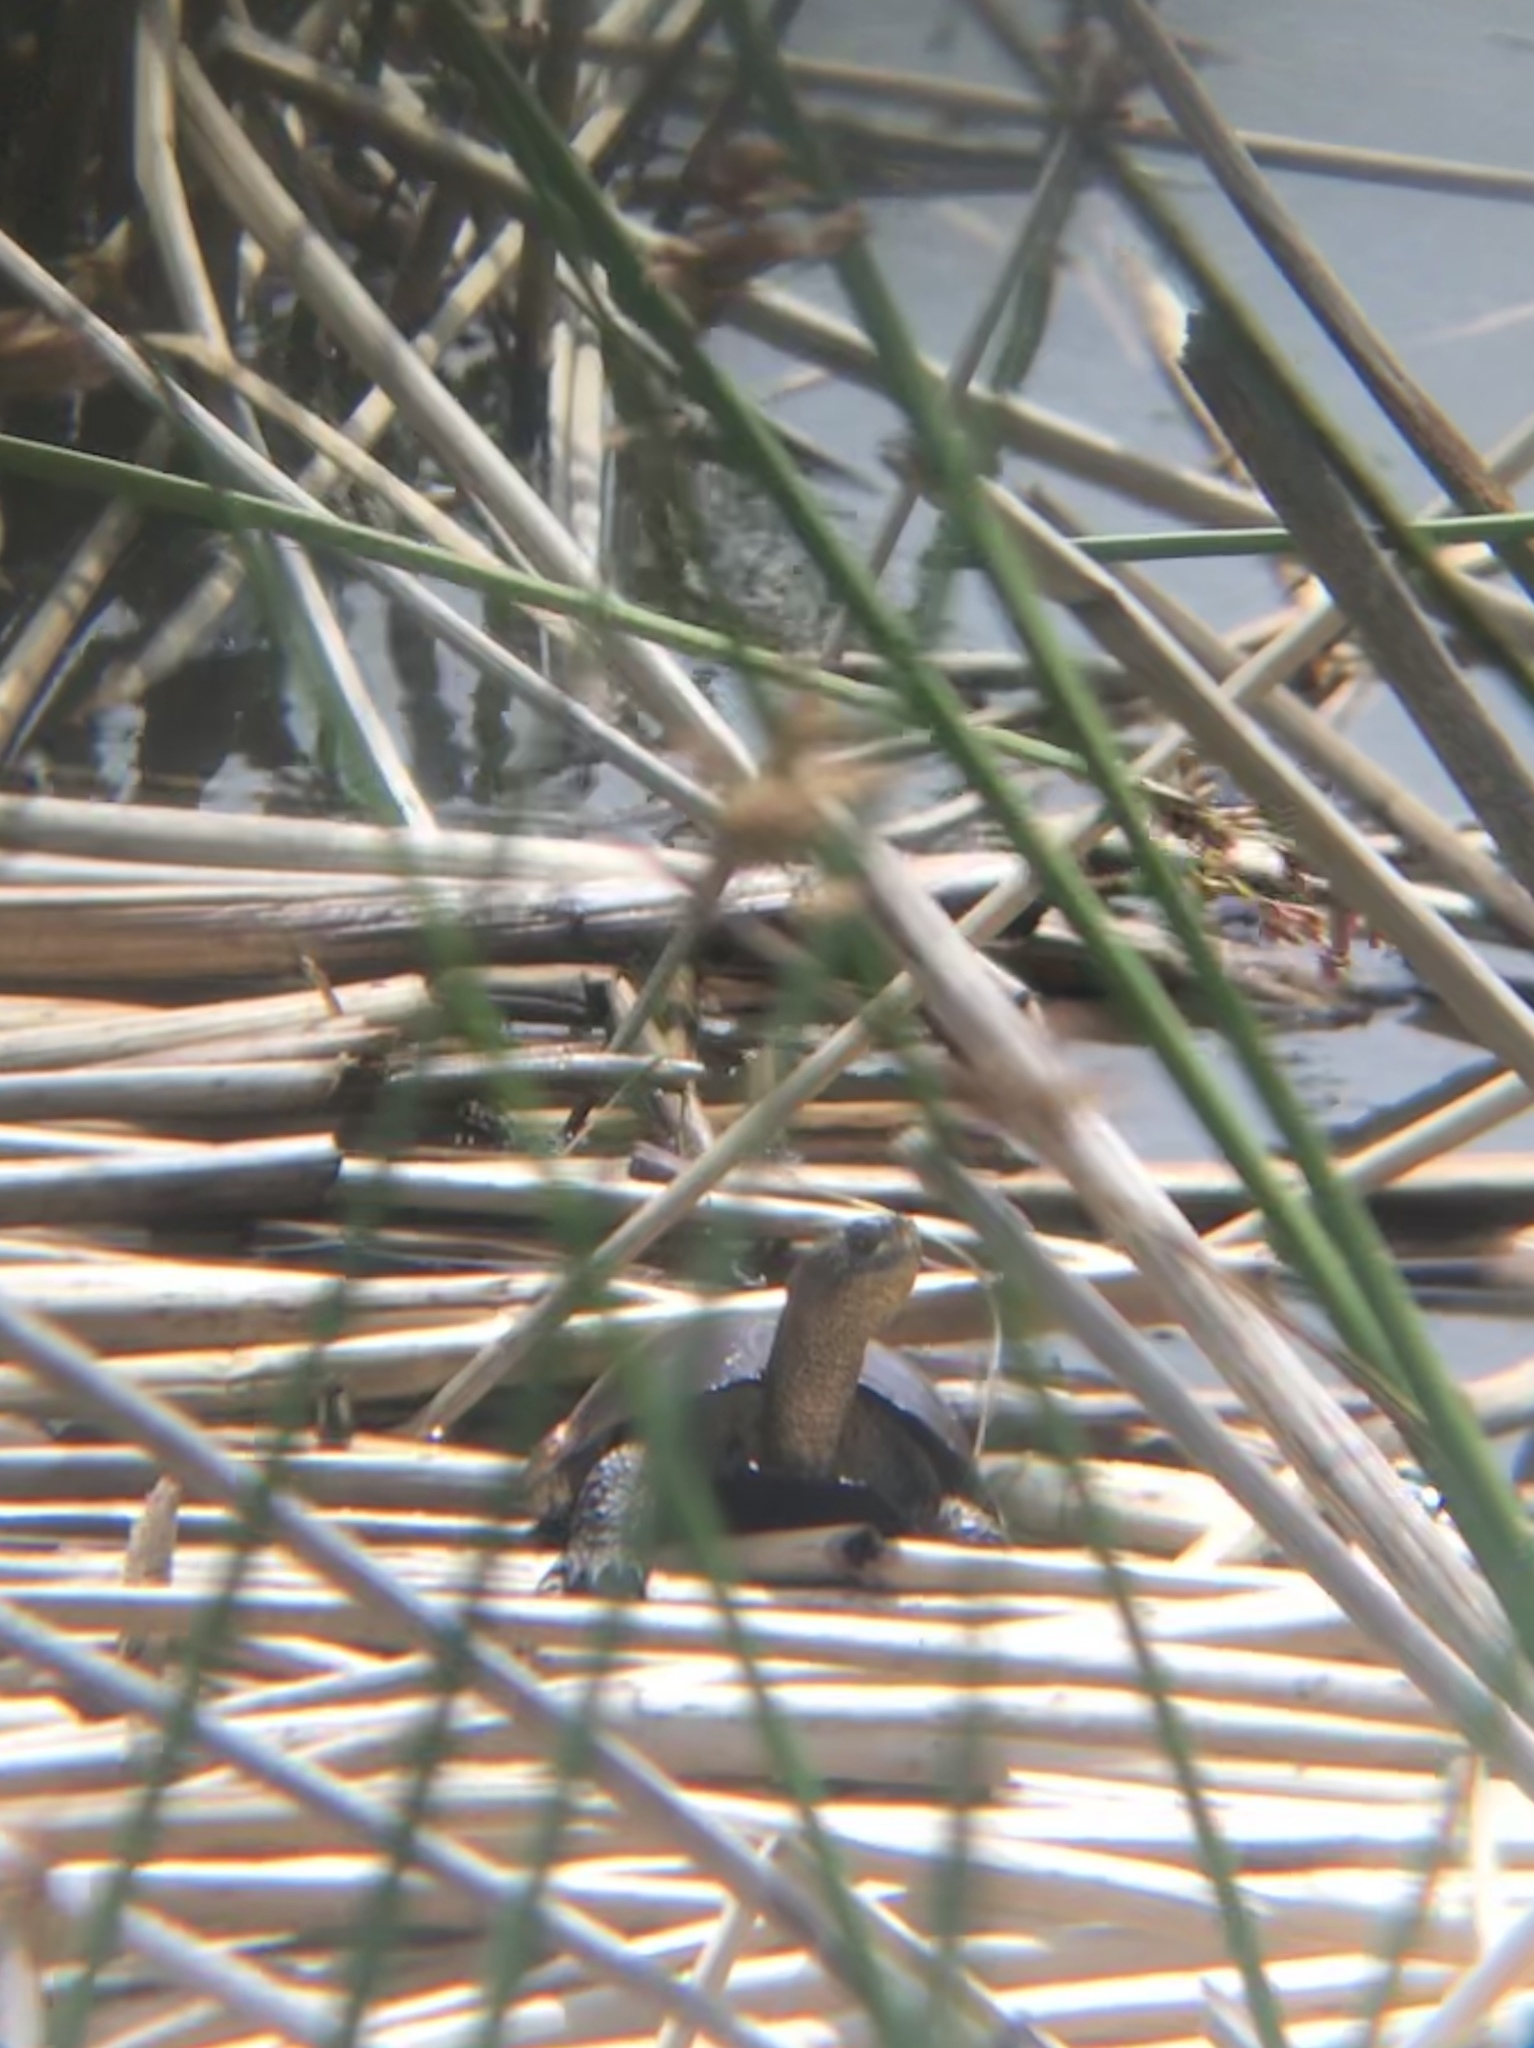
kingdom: Animalia
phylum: Chordata
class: Testudines
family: Emydidae
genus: Actinemys
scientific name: Actinemys marmorata
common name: Western pond turtle
